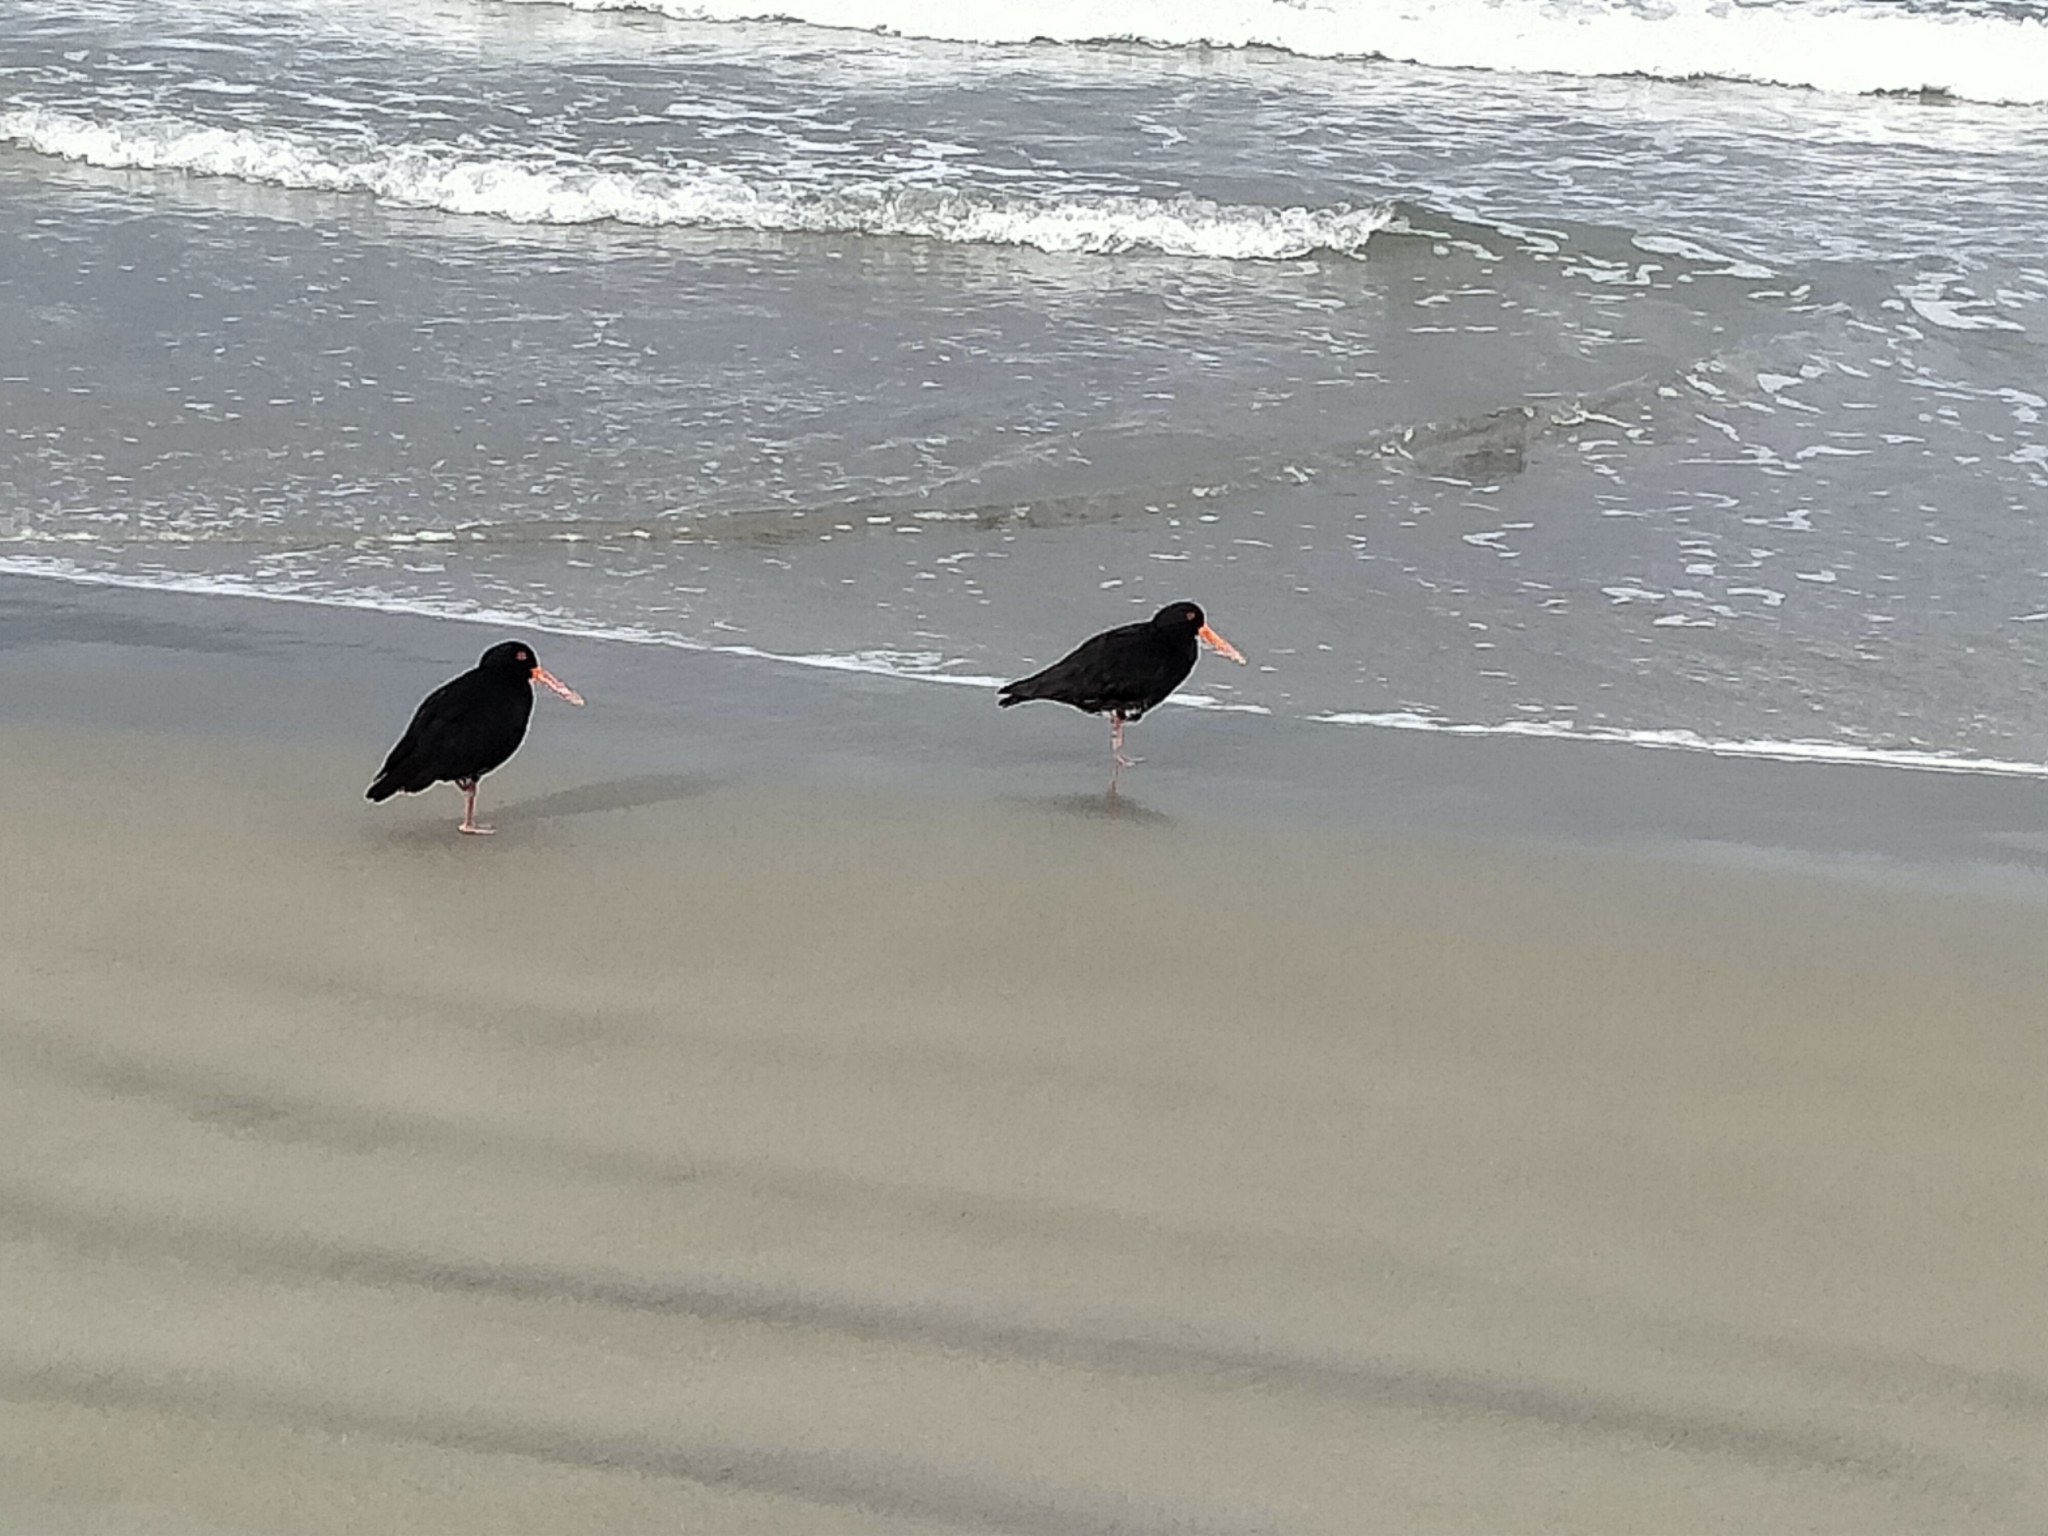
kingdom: Animalia
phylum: Chordata
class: Aves
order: Charadriiformes
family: Haematopodidae
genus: Haematopus
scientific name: Haematopus unicolor
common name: Variable oystercatcher
